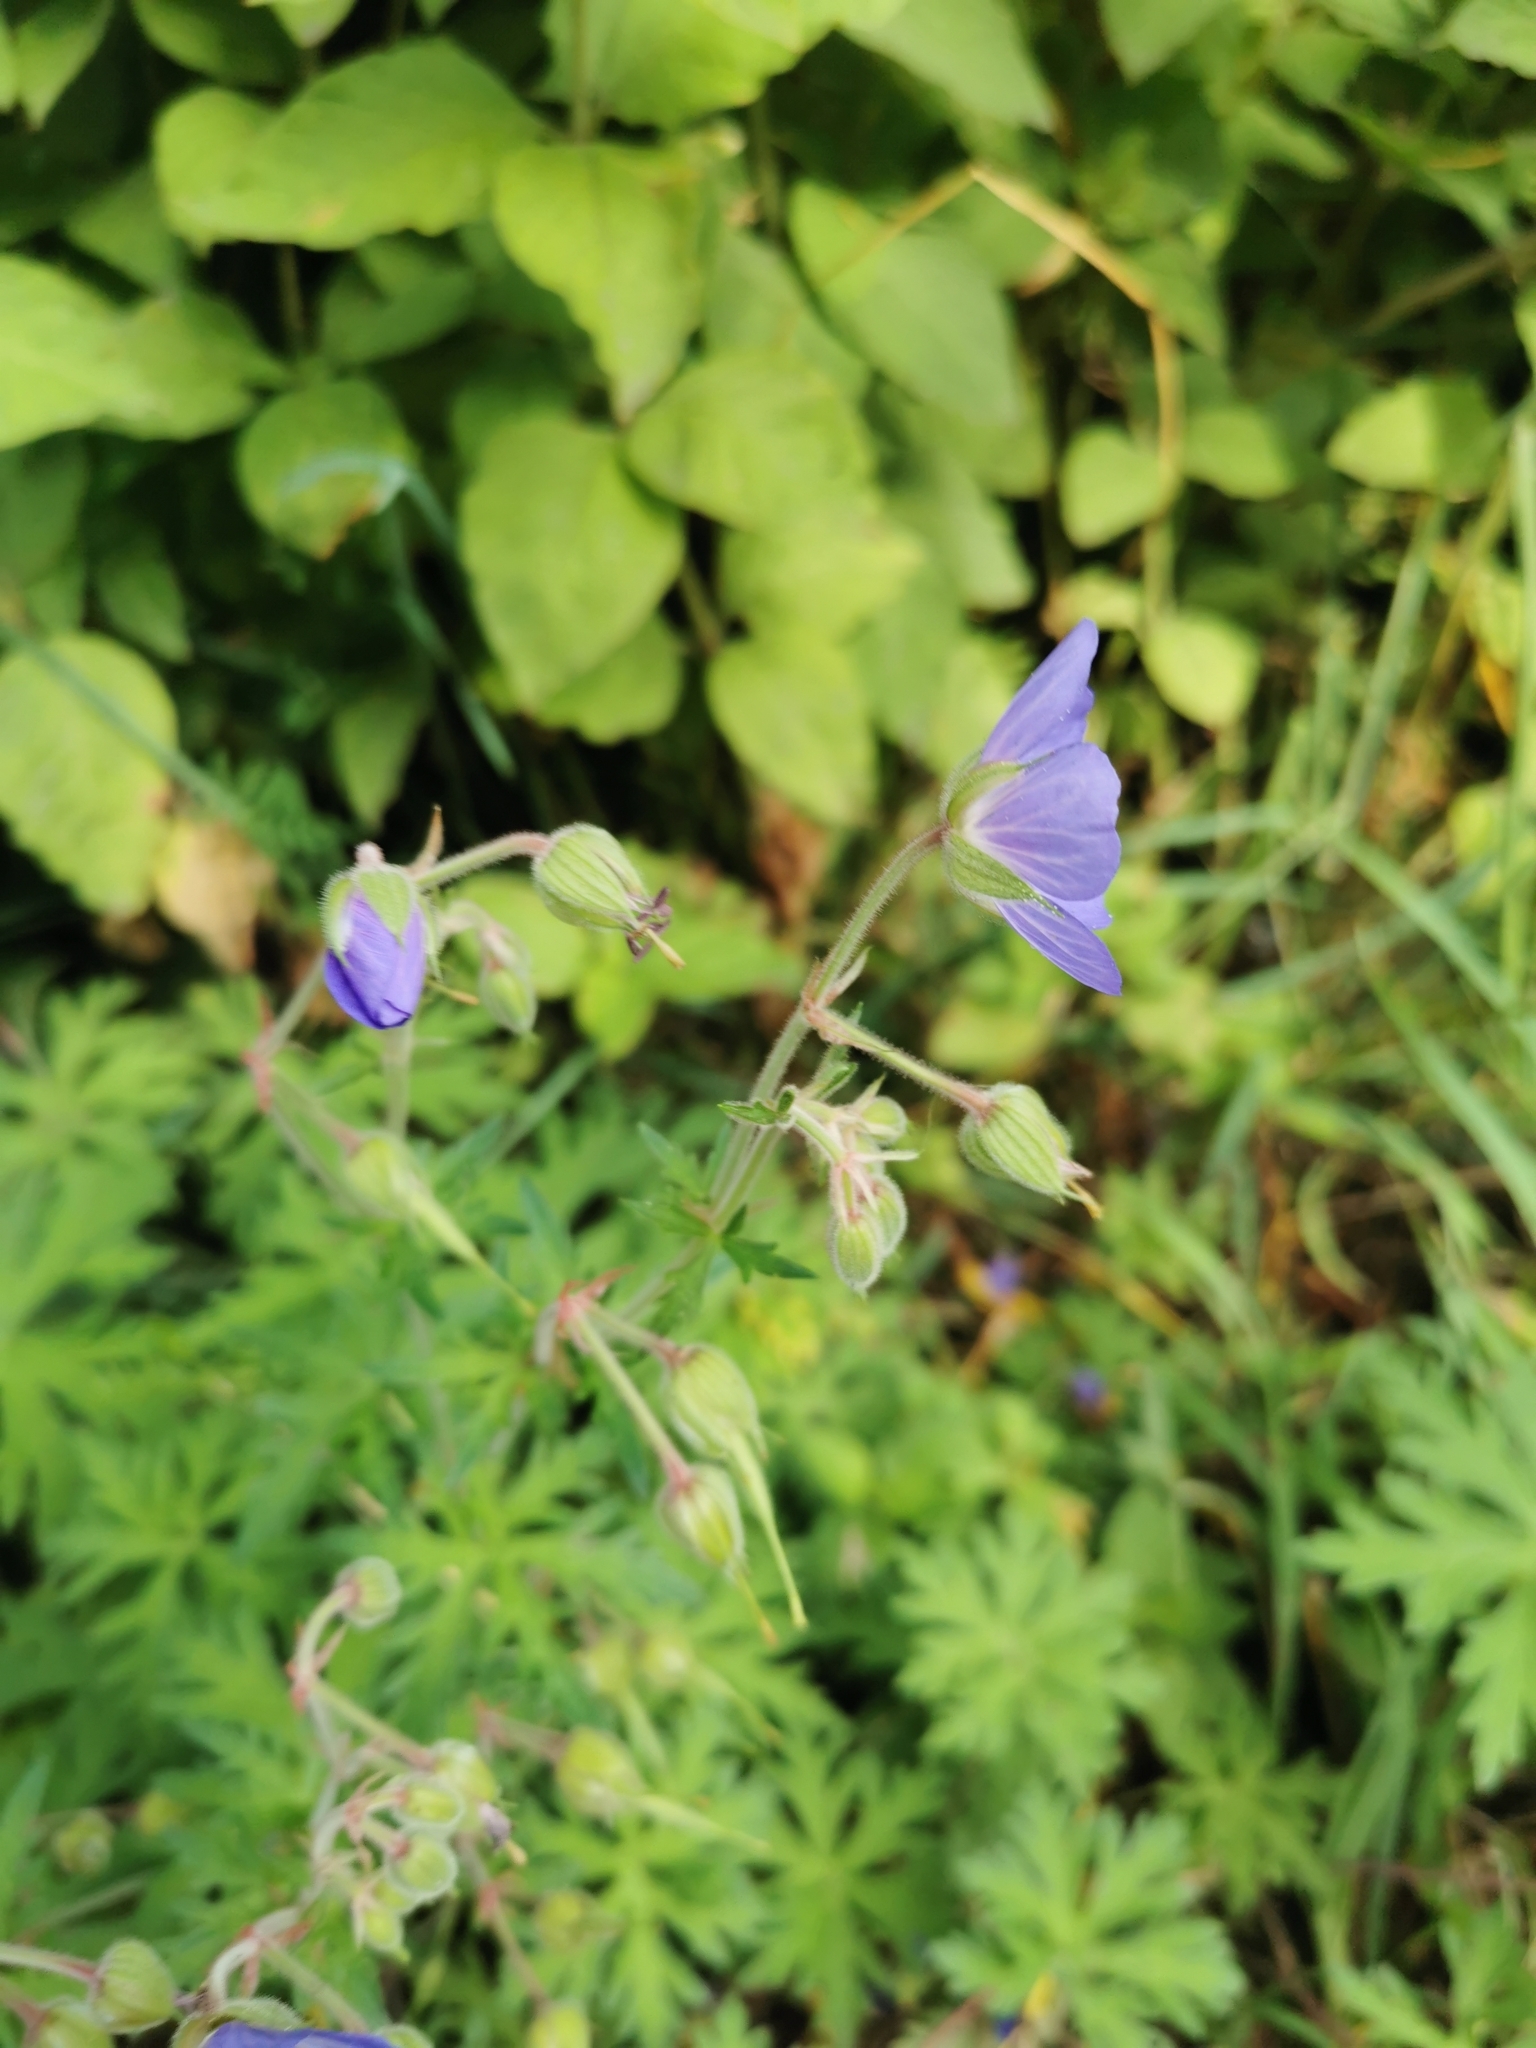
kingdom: Plantae
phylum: Tracheophyta
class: Magnoliopsida
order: Geraniales
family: Geraniaceae
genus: Geranium
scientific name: Geranium pratense
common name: Meadow crane's-bill
